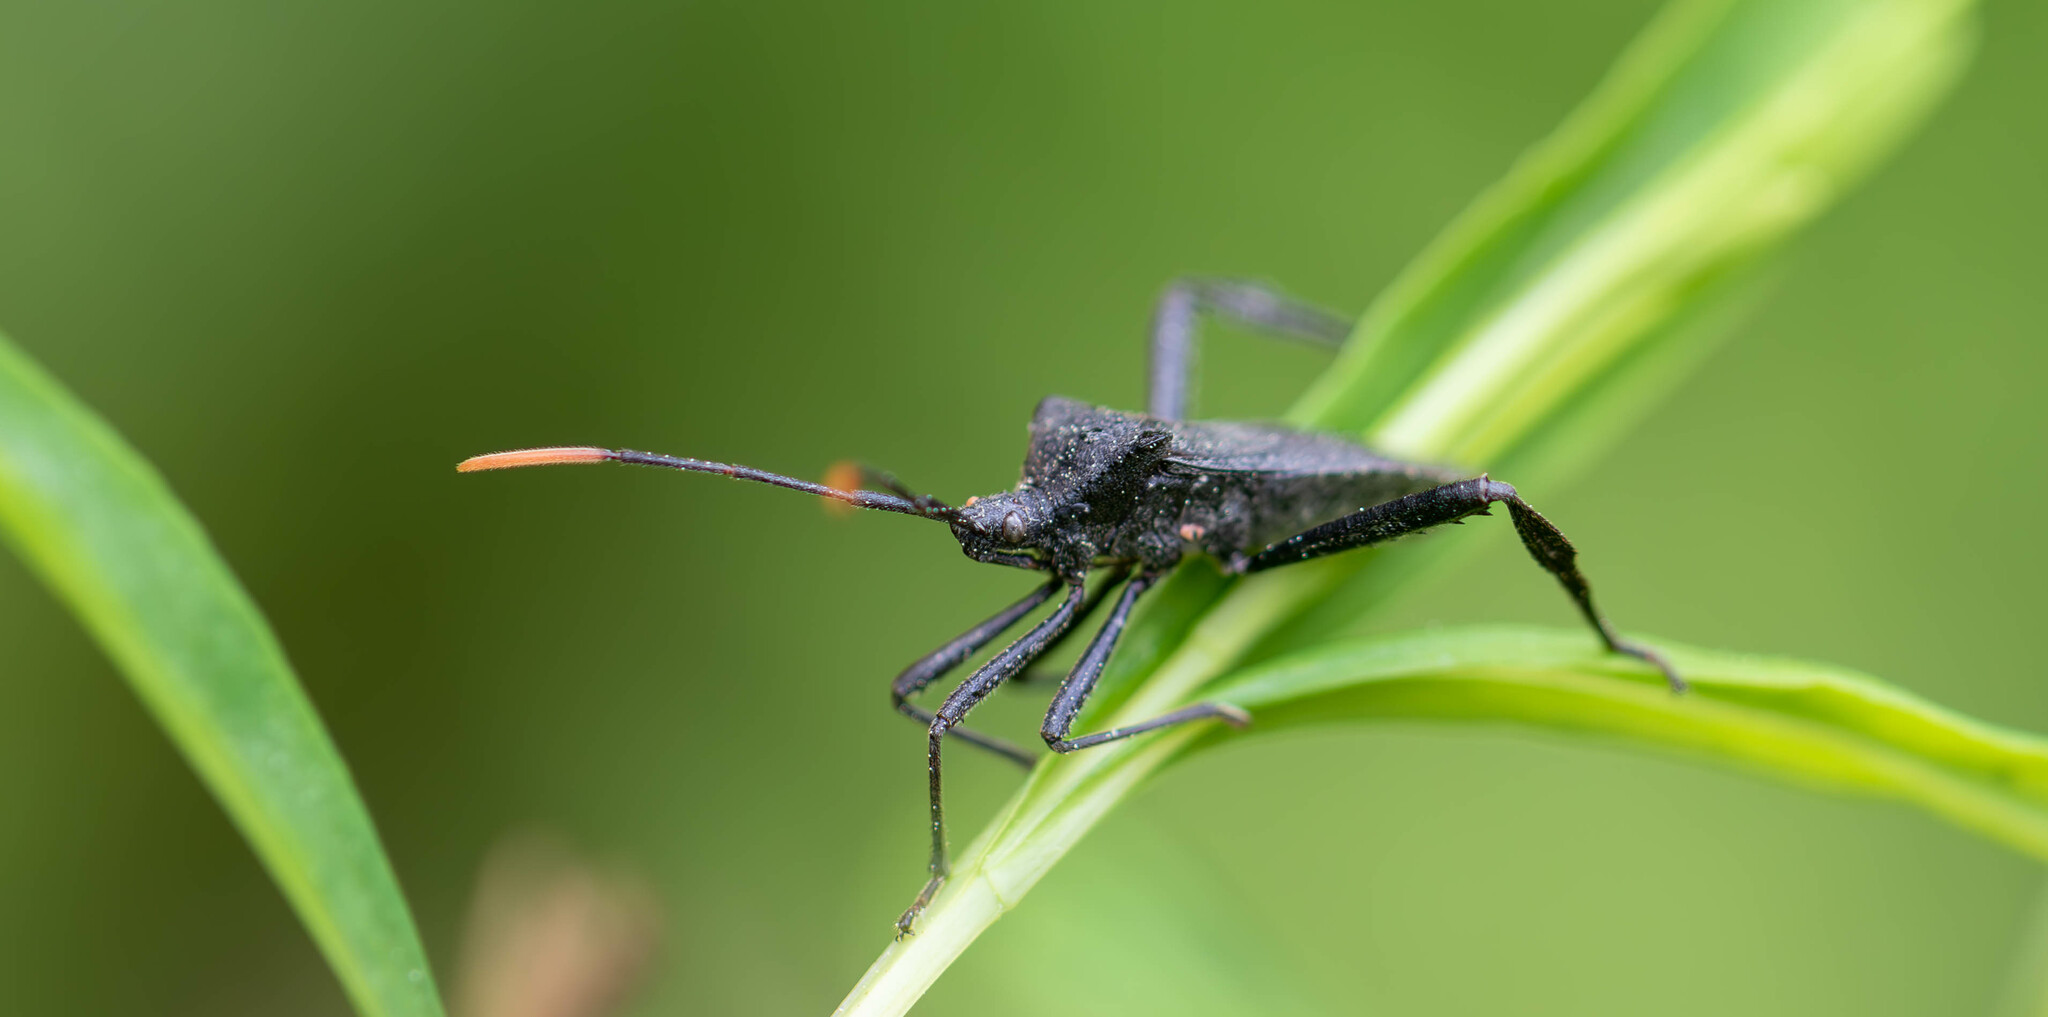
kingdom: Animalia
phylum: Arthropoda
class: Insecta
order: Hemiptera
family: Coreidae
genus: Acanthocephala
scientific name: Acanthocephala terminalis
